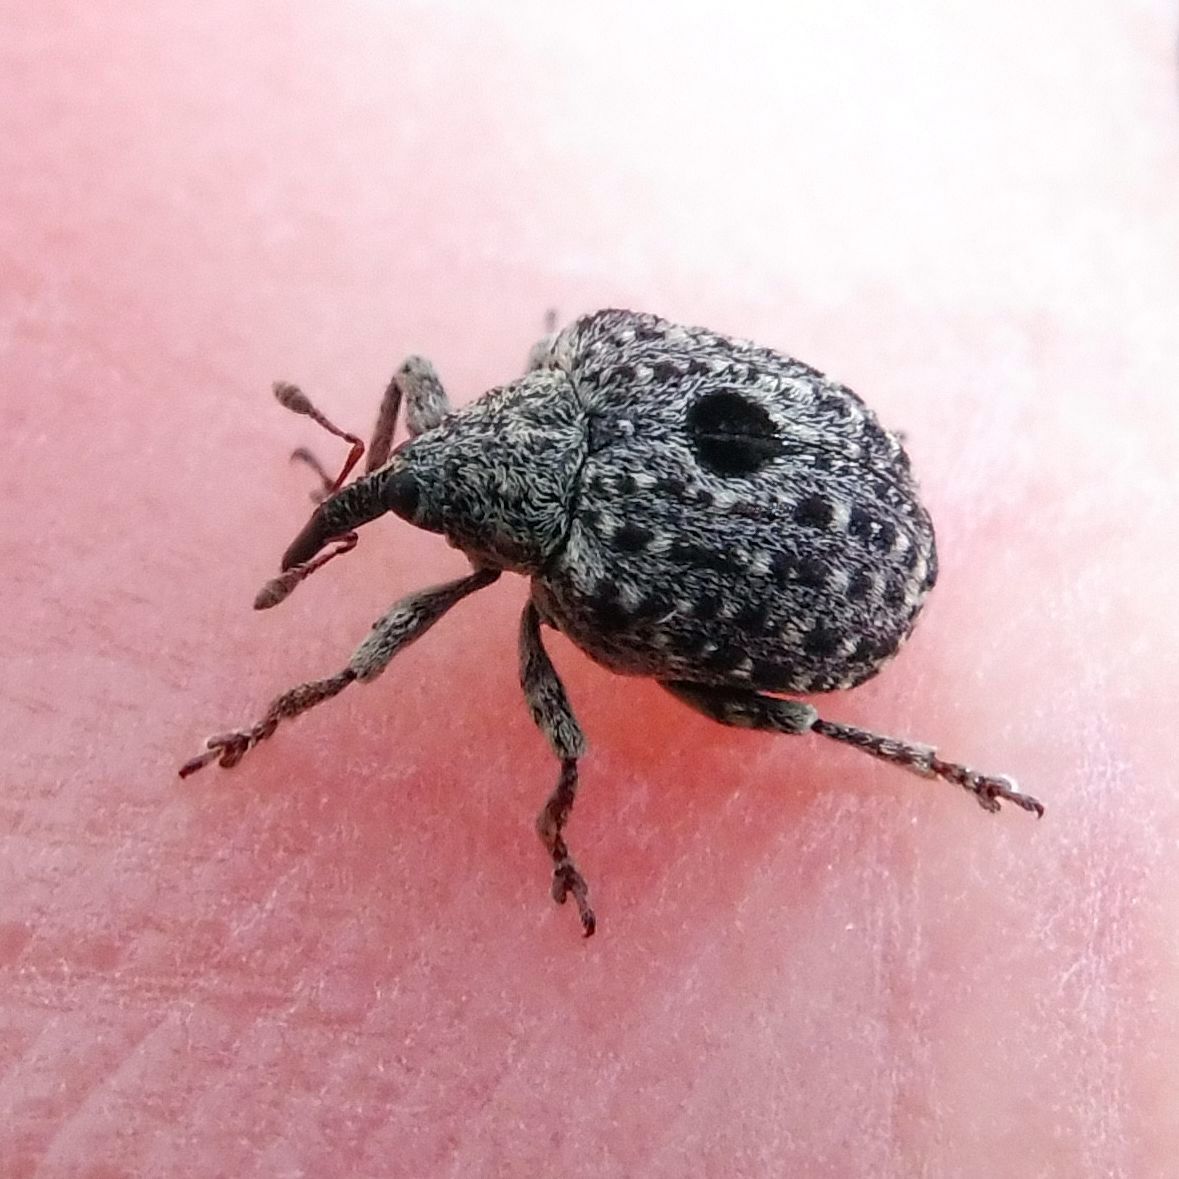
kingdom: Animalia
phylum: Arthropoda
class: Insecta
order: Coleoptera
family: Curculionidae
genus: Cionus
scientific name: Cionus hortulanus
